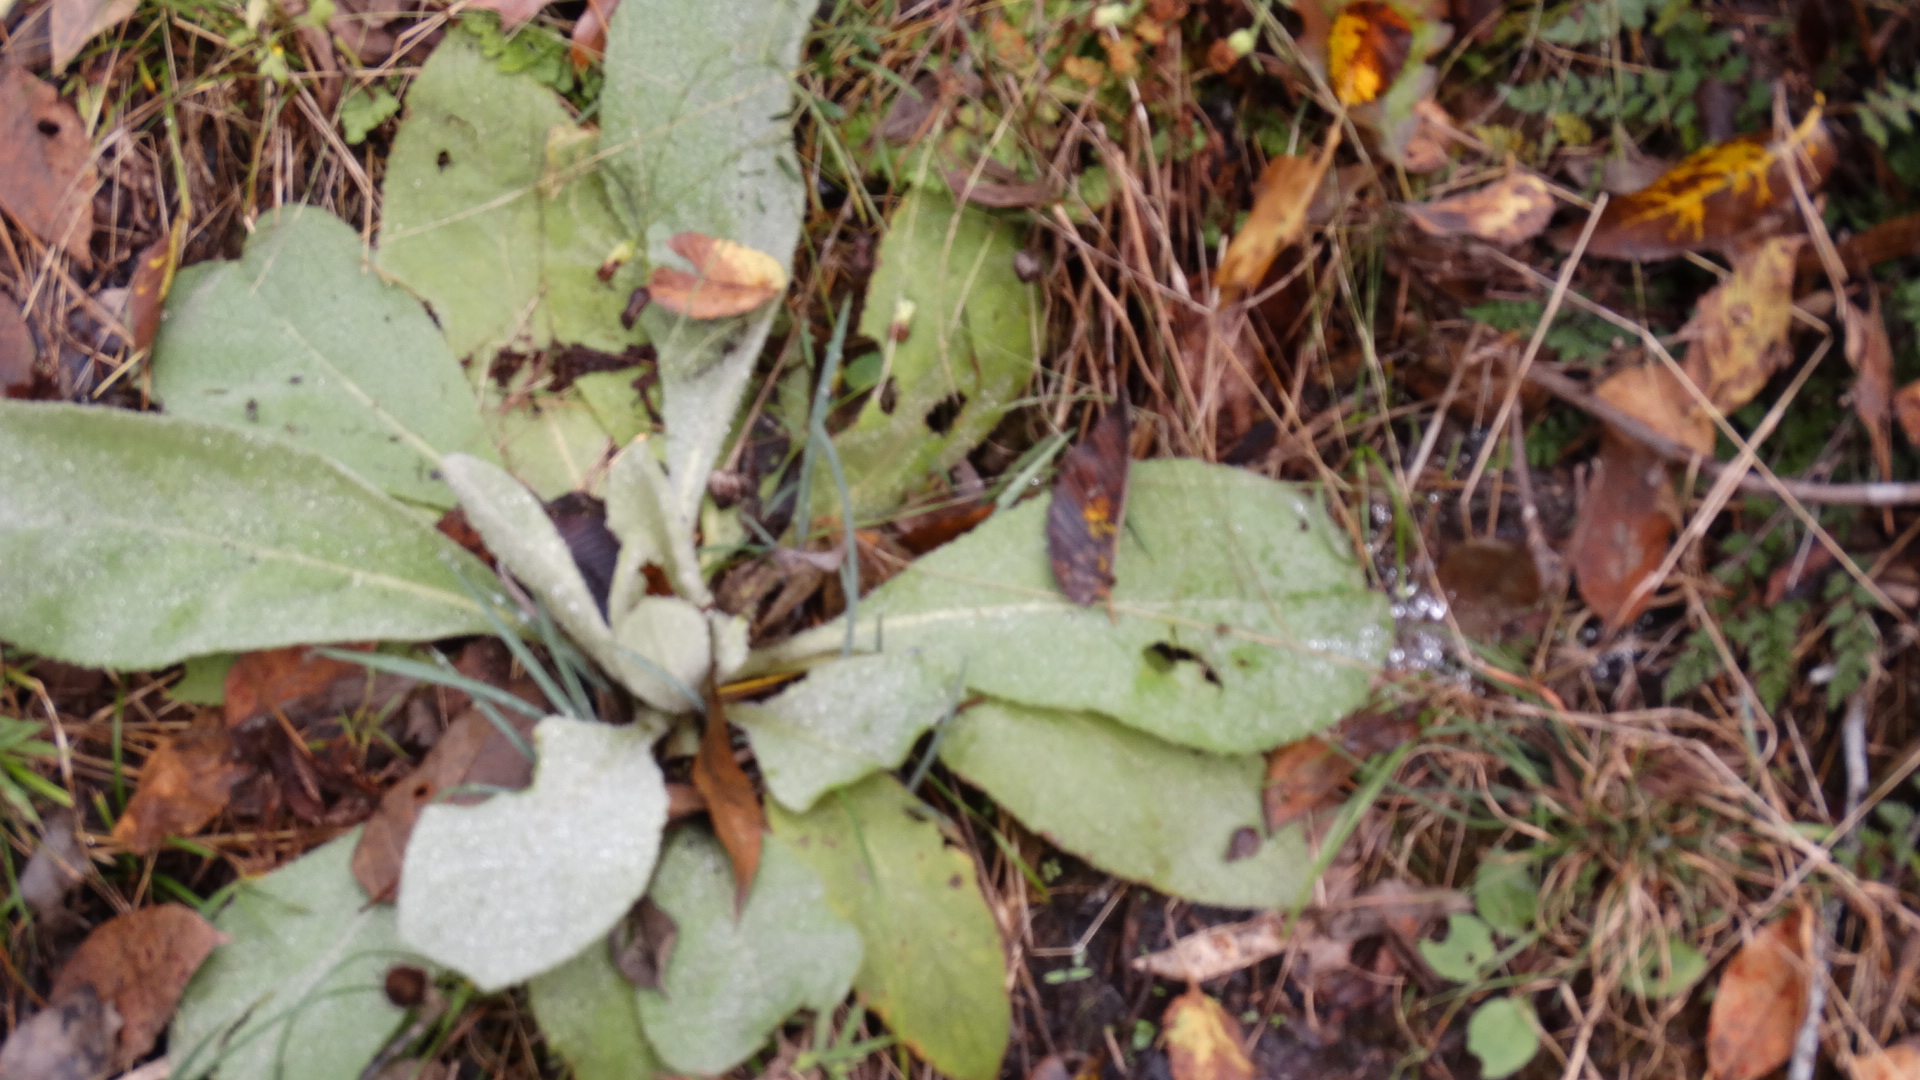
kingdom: Plantae
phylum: Tracheophyta
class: Magnoliopsida
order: Lamiales
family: Scrophulariaceae
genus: Verbascum
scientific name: Verbascum thapsus
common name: Common mullein
